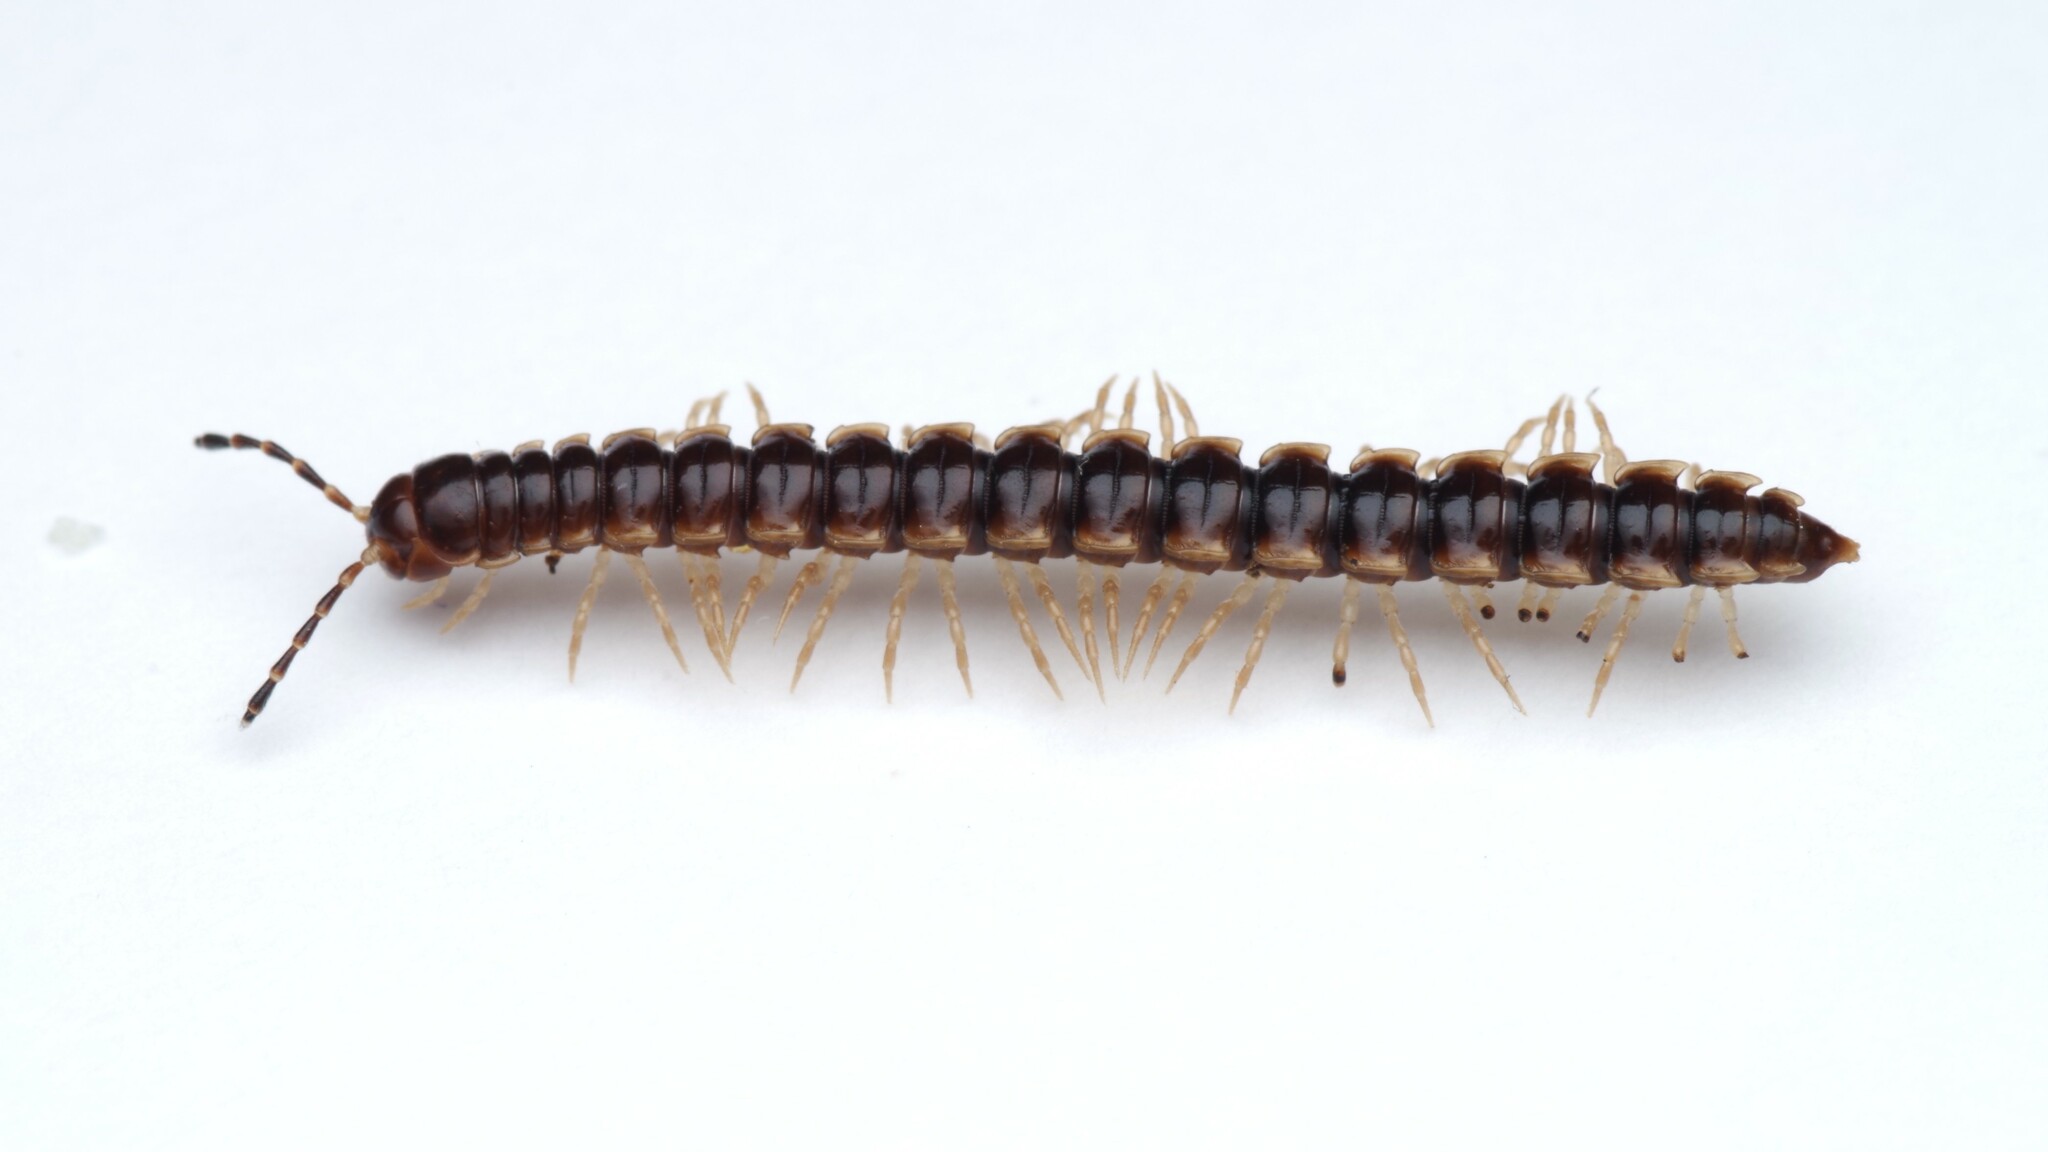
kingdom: Animalia
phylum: Arthropoda
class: Diplopoda
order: Polydesmida
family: Paradoxosomatidae
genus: Oxidus
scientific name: Oxidus gracilis
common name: Greenhouse millipede
